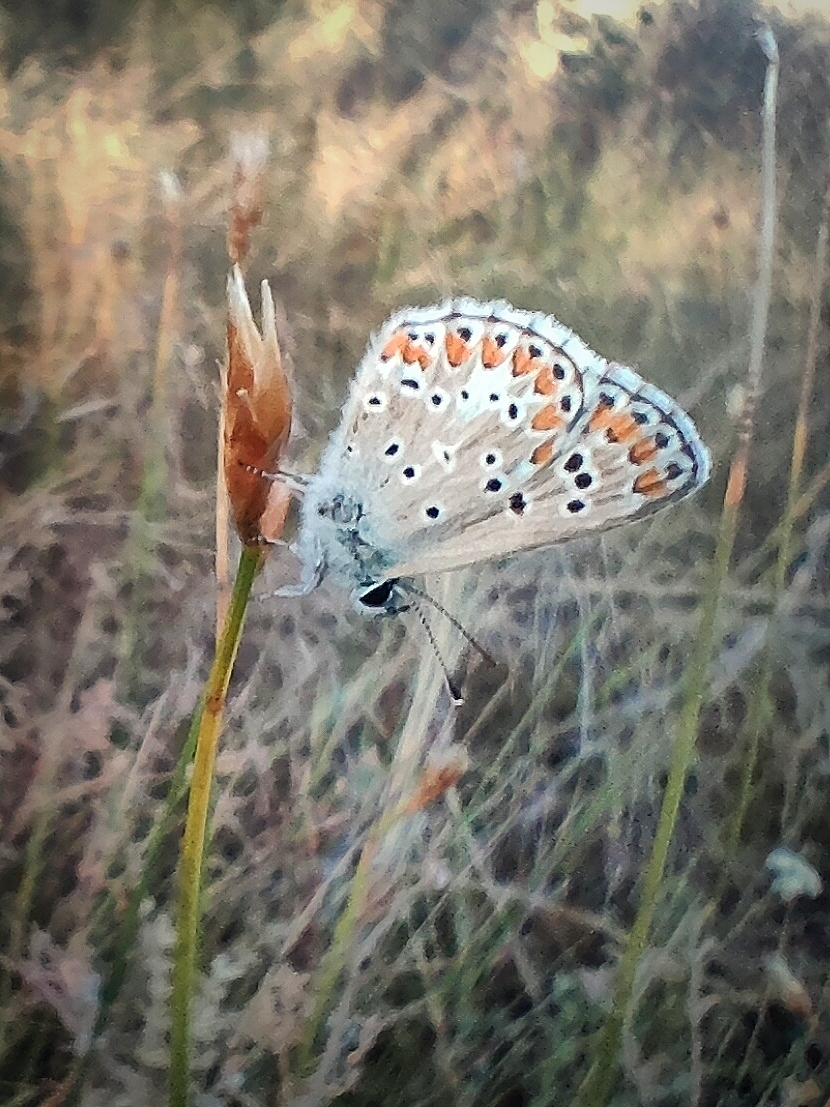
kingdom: Animalia
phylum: Arthropoda
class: Insecta
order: Lepidoptera
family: Lycaenidae
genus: Aricia
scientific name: Aricia cramera
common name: Eschscholtz´s brown  argus
